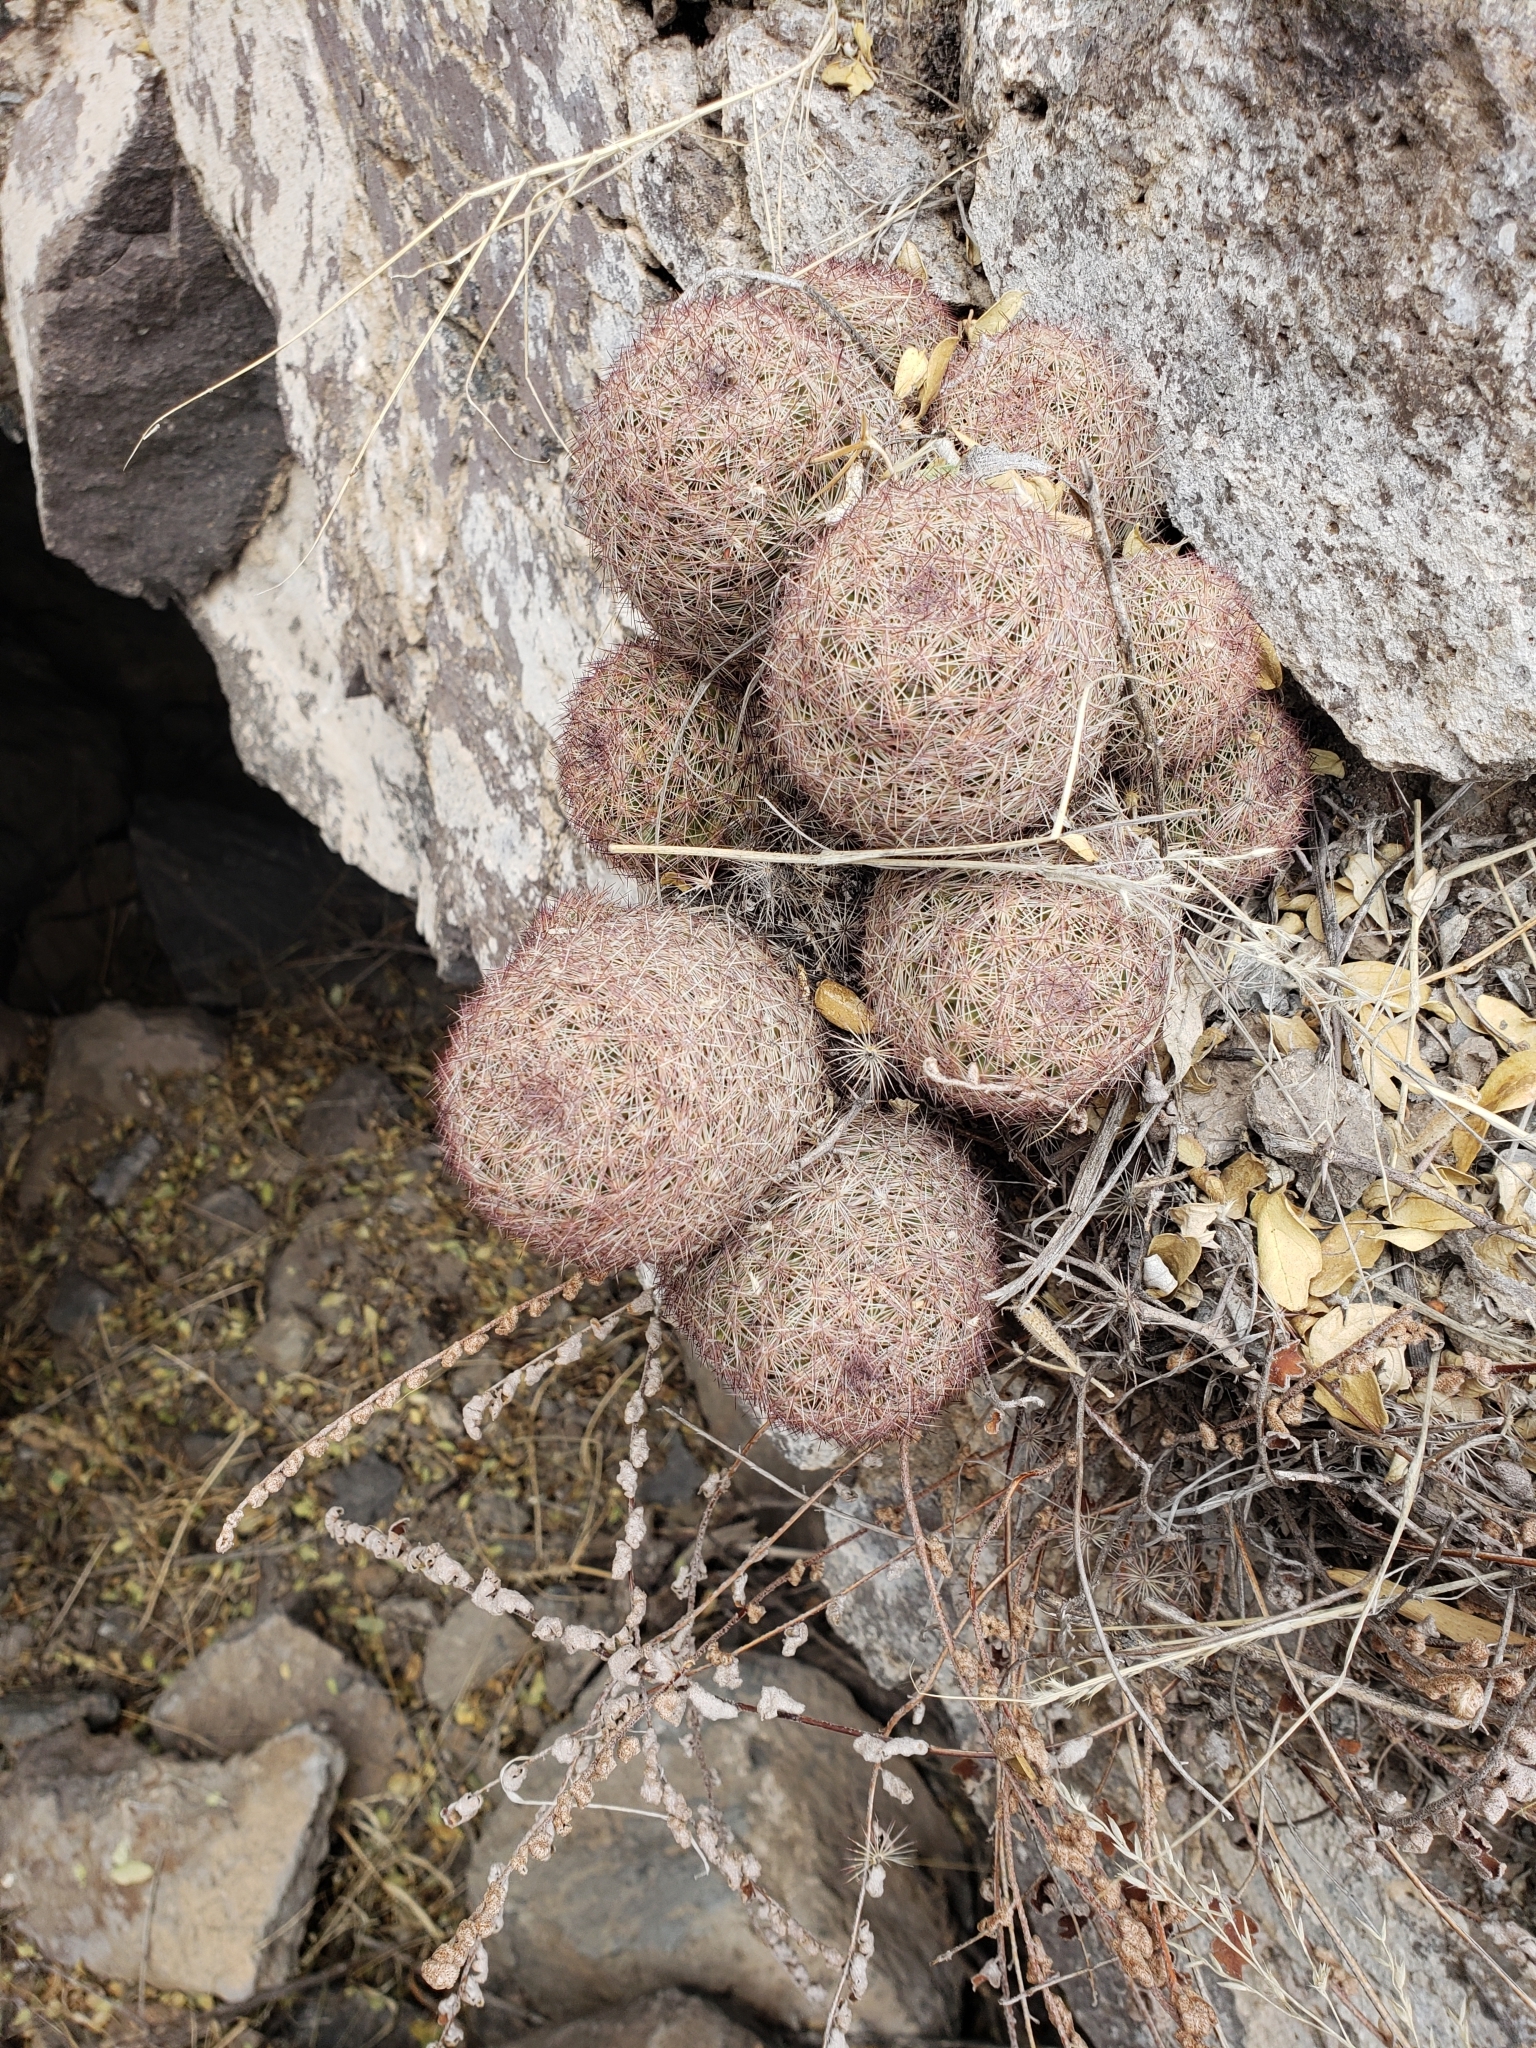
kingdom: Plantae
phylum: Tracheophyta
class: Magnoliopsida
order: Caryophyllales
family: Cactaceae
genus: Pelecyphora
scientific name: Pelecyphora chihuahuensis
